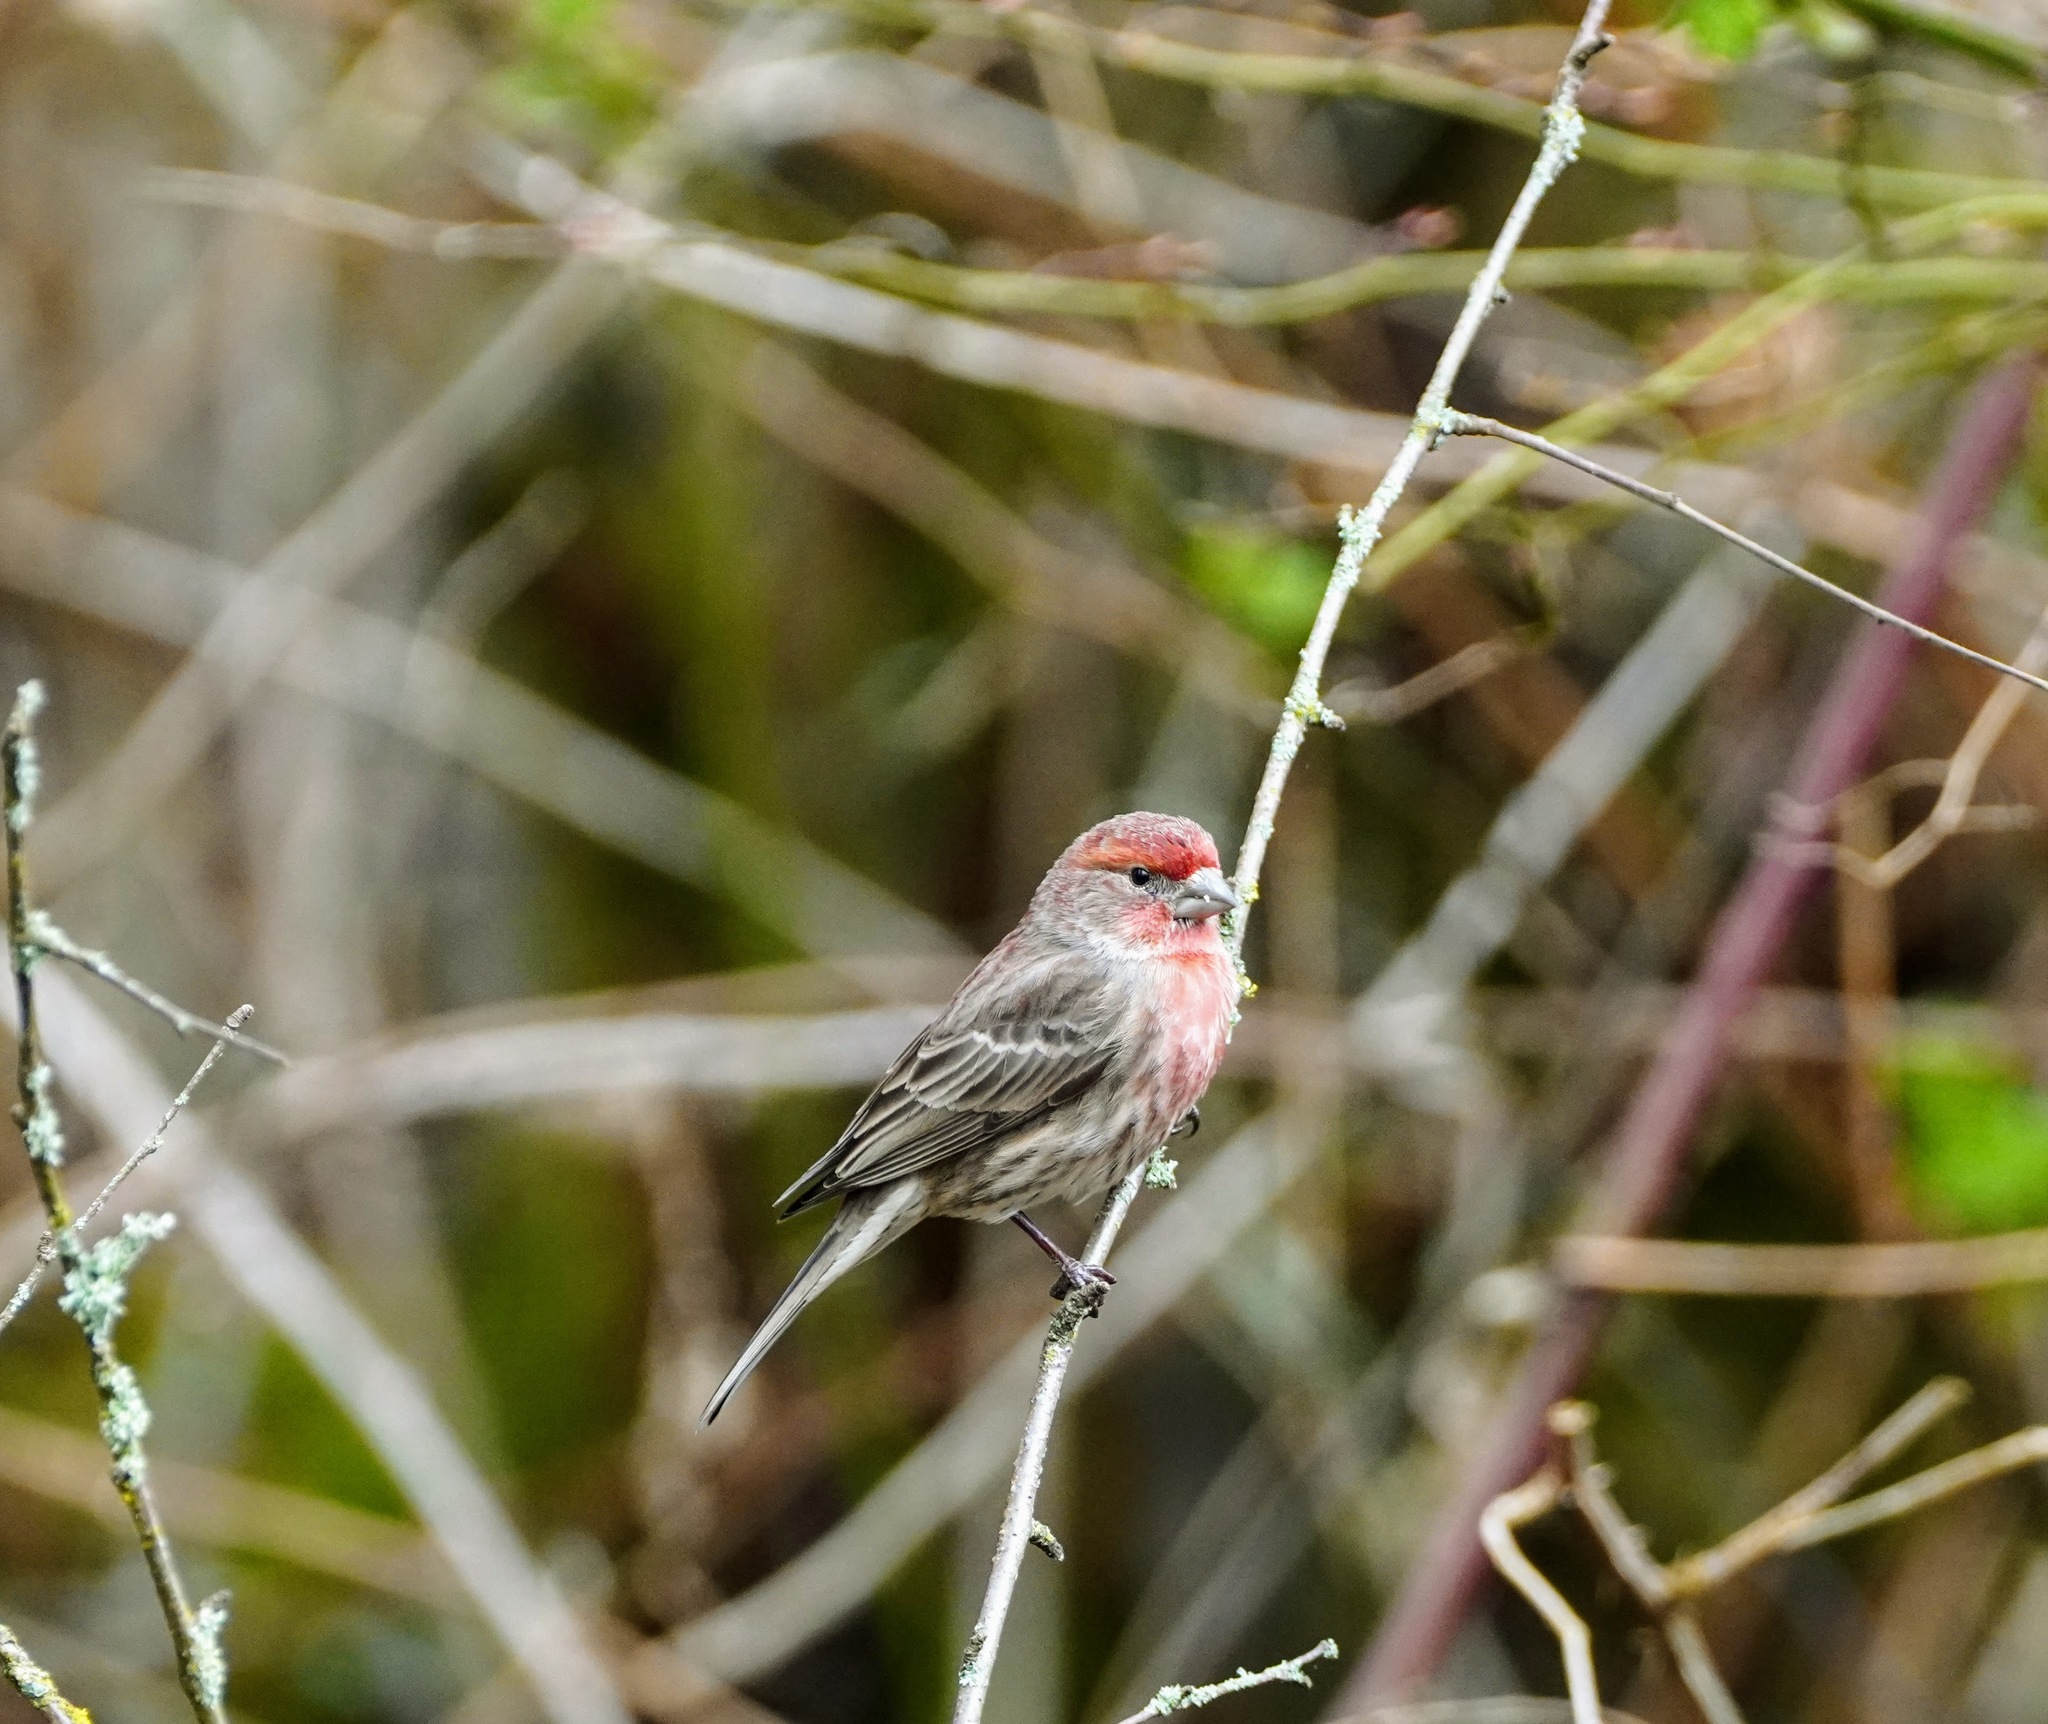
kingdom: Animalia
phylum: Chordata
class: Aves
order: Passeriformes
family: Fringillidae
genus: Haemorhous
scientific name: Haemorhous mexicanus
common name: House finch
